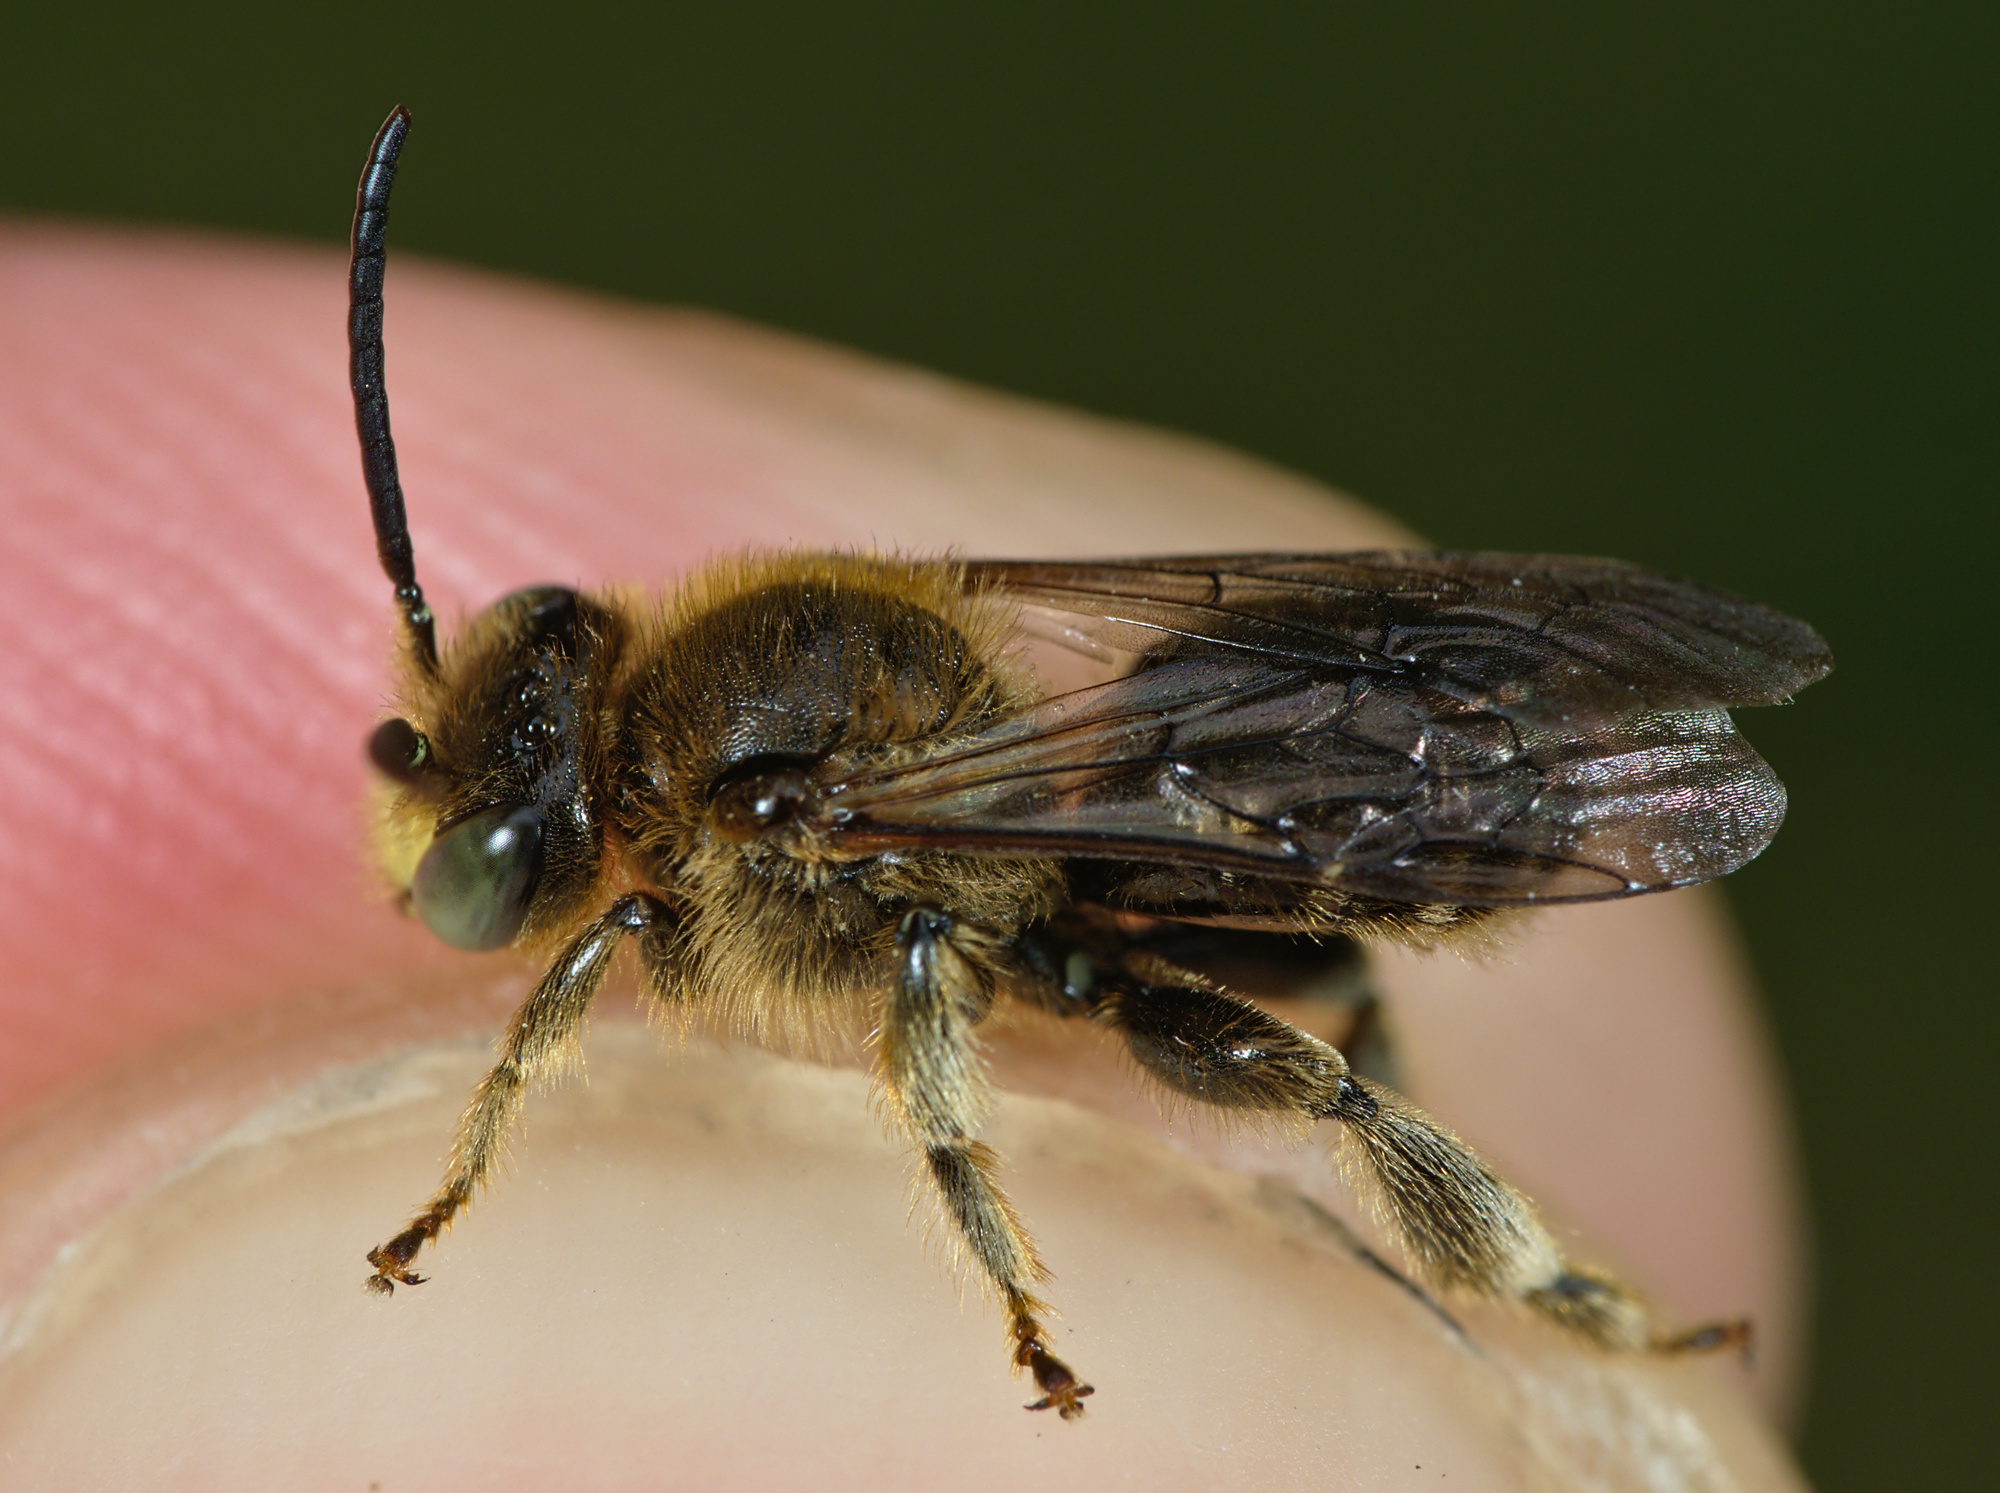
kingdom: Animalia
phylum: Arthropoda
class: Insecta
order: Hymenoptera
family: Melittidae
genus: Macropis
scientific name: Macropis fulvipes
